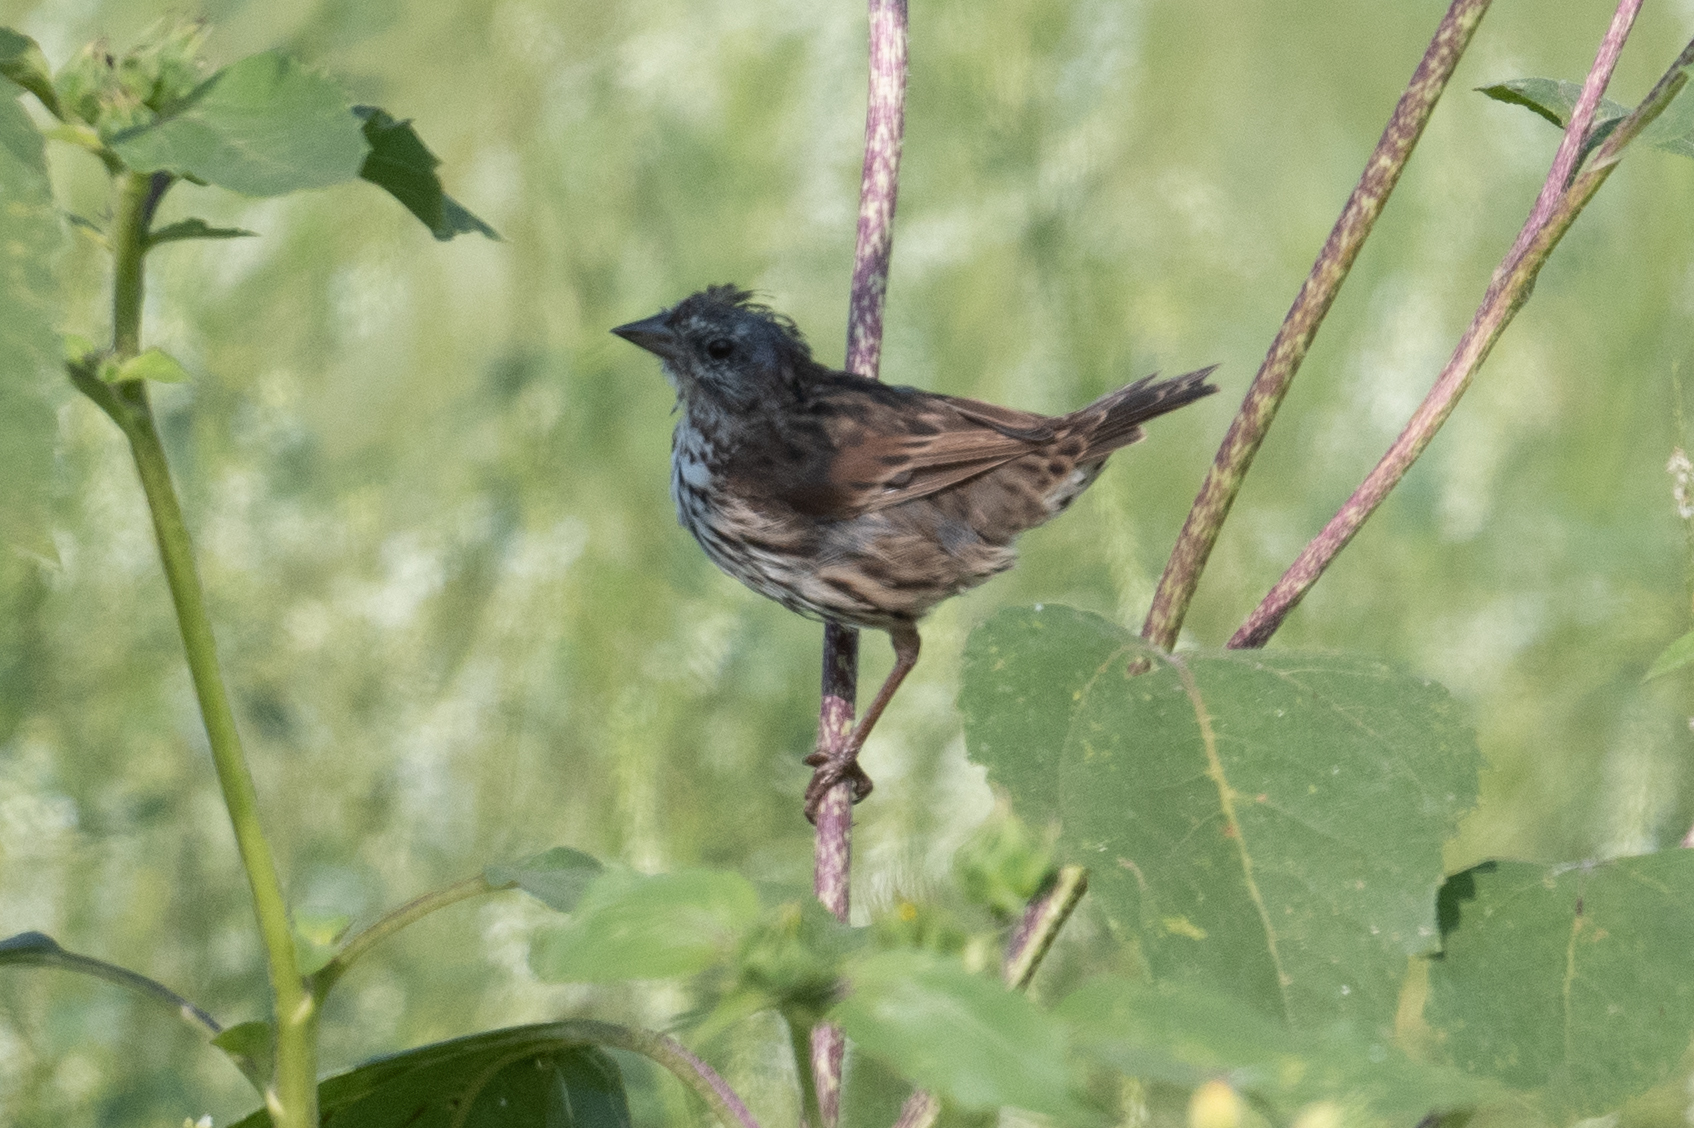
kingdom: Animalia
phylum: Chordata
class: Aves
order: Passeriformes
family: Passerellidae
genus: Melospiza
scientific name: Melospiza melodia
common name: Song sparrow
